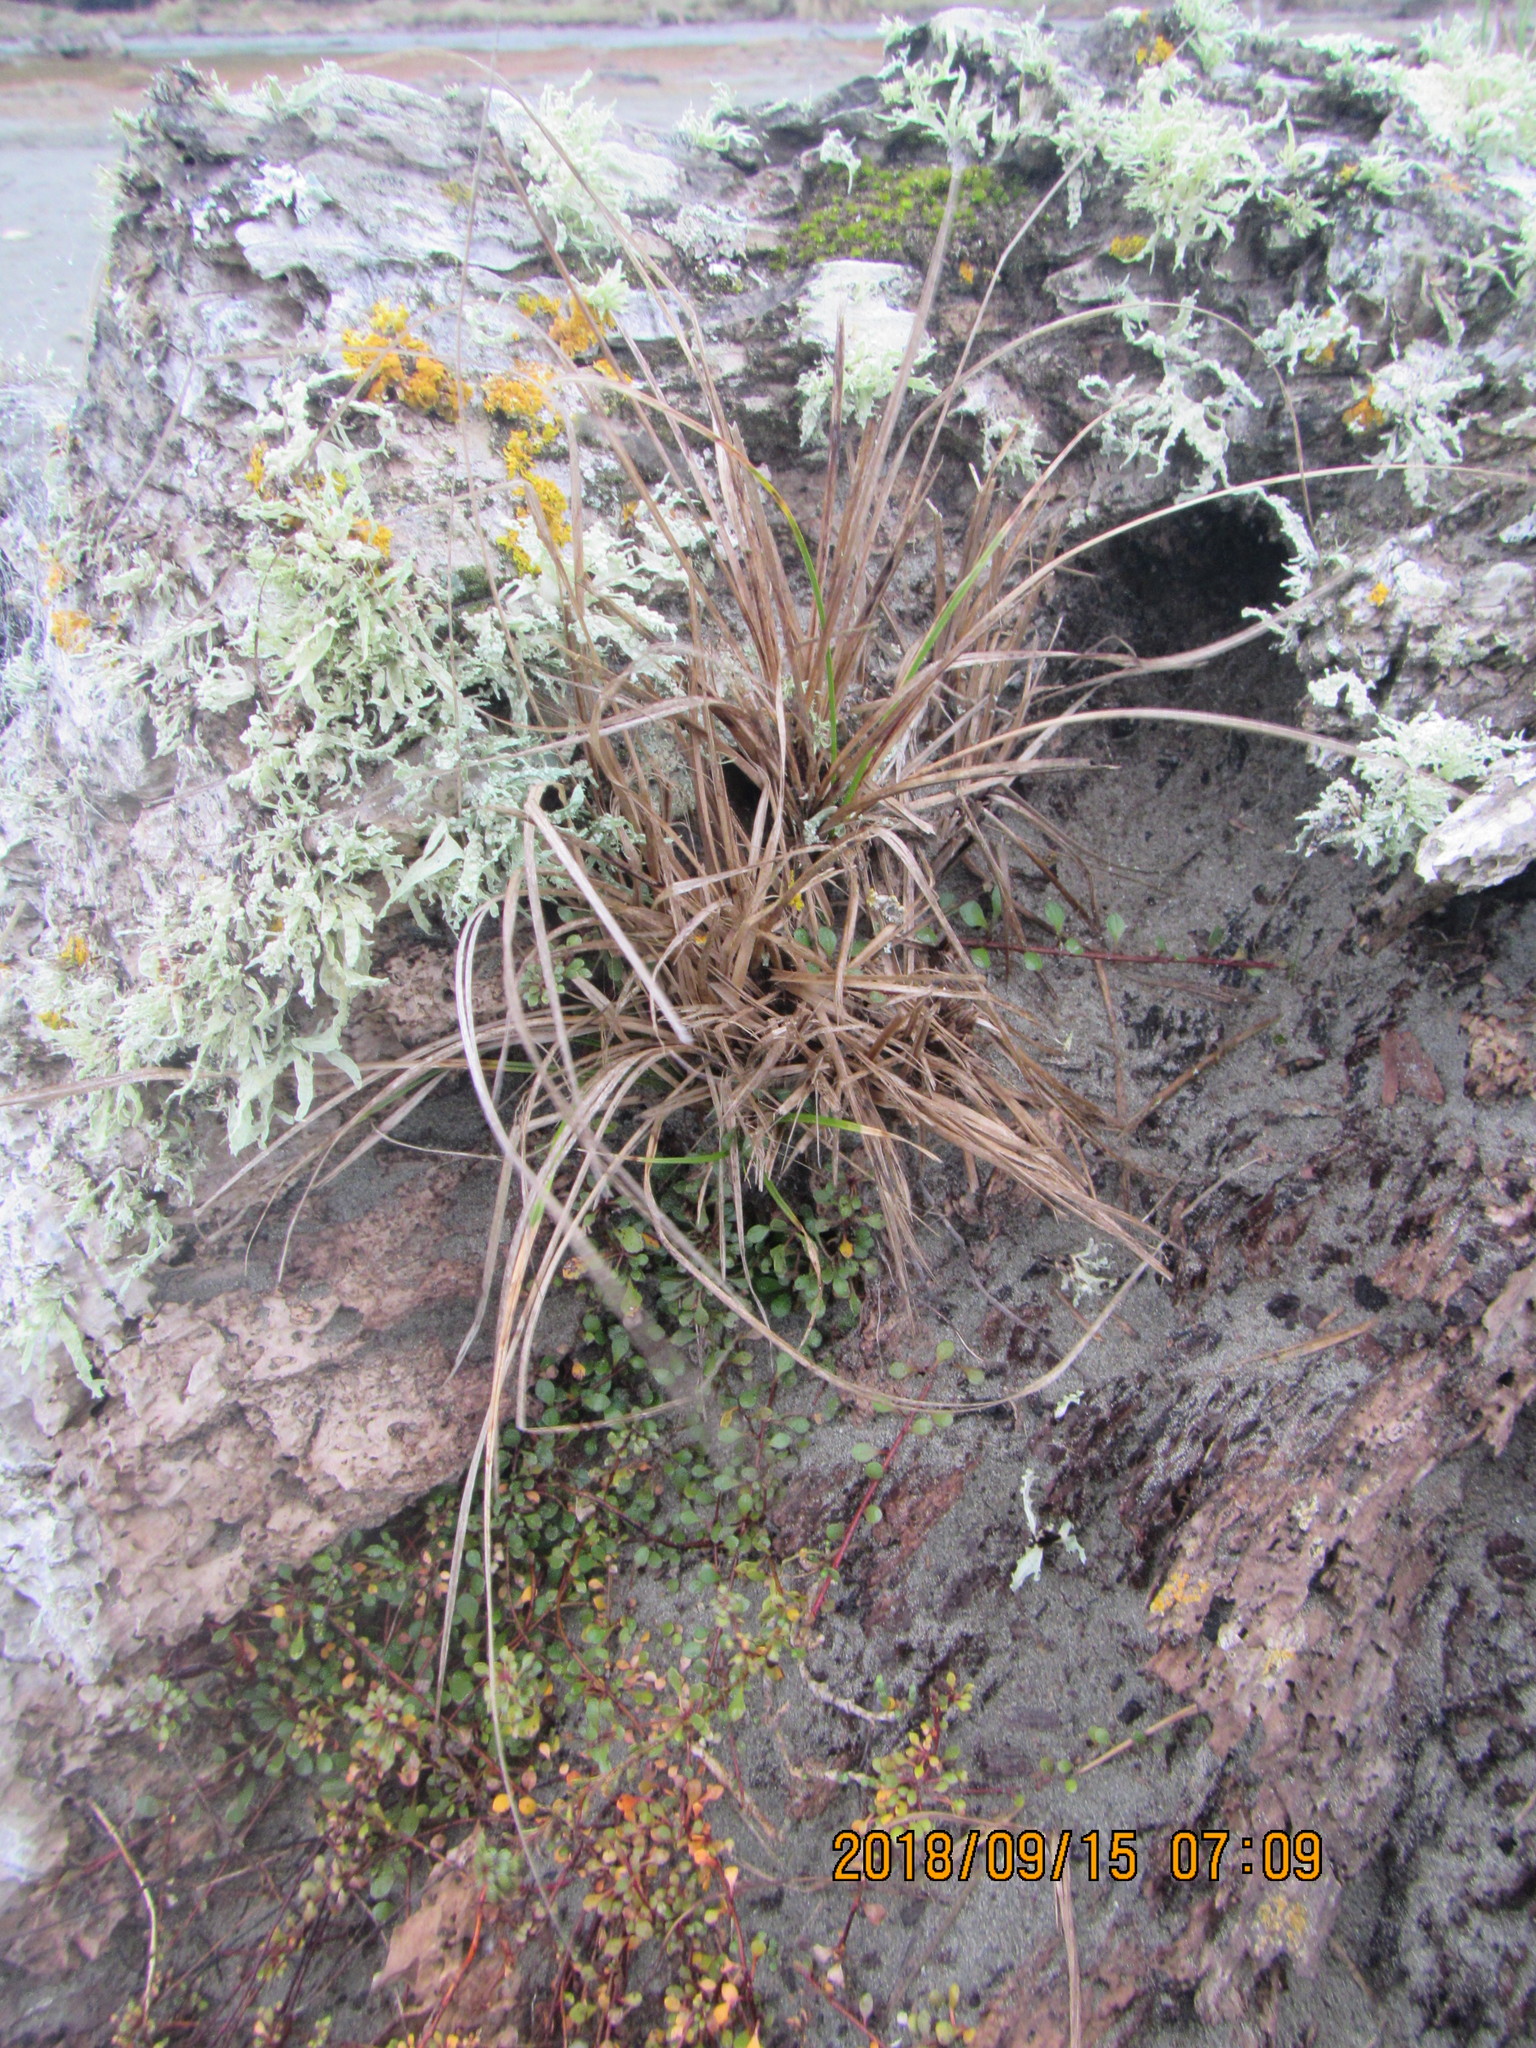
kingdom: Plantae
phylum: Tracheophyta
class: Liliopsida
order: Poales
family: Cyperaceae
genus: Carex
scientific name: Carex pumila
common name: Dwarf sedge
